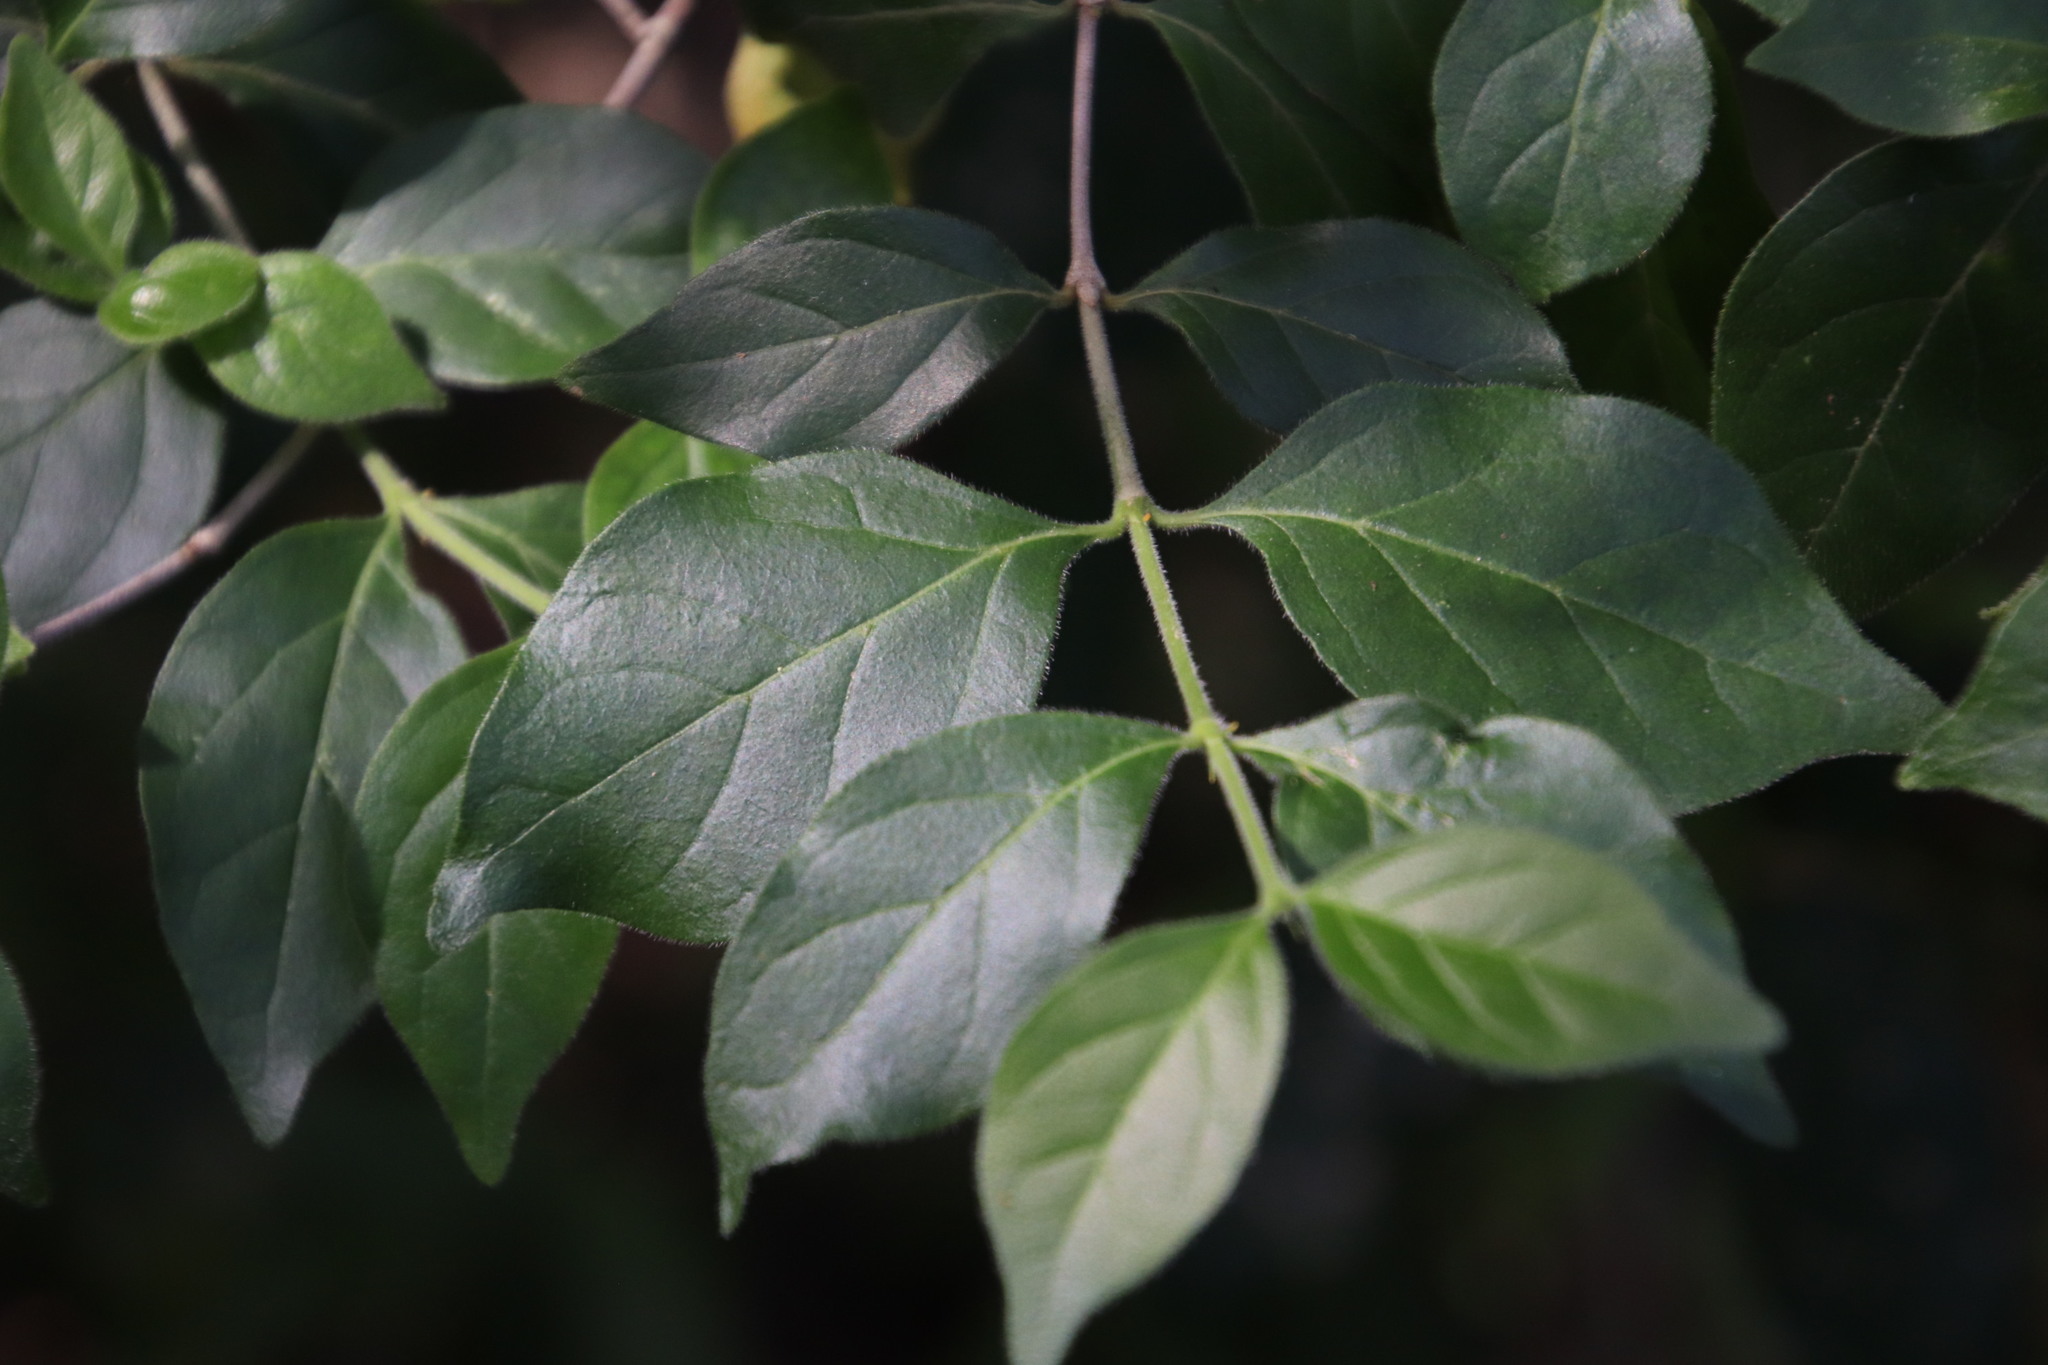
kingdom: Plantae
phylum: Tracheophyta
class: Magnoliopsida
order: Gentianales
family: Rubiaceae
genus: Afrocanthium
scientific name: Afrocanthium mundianum
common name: Rock-alder
